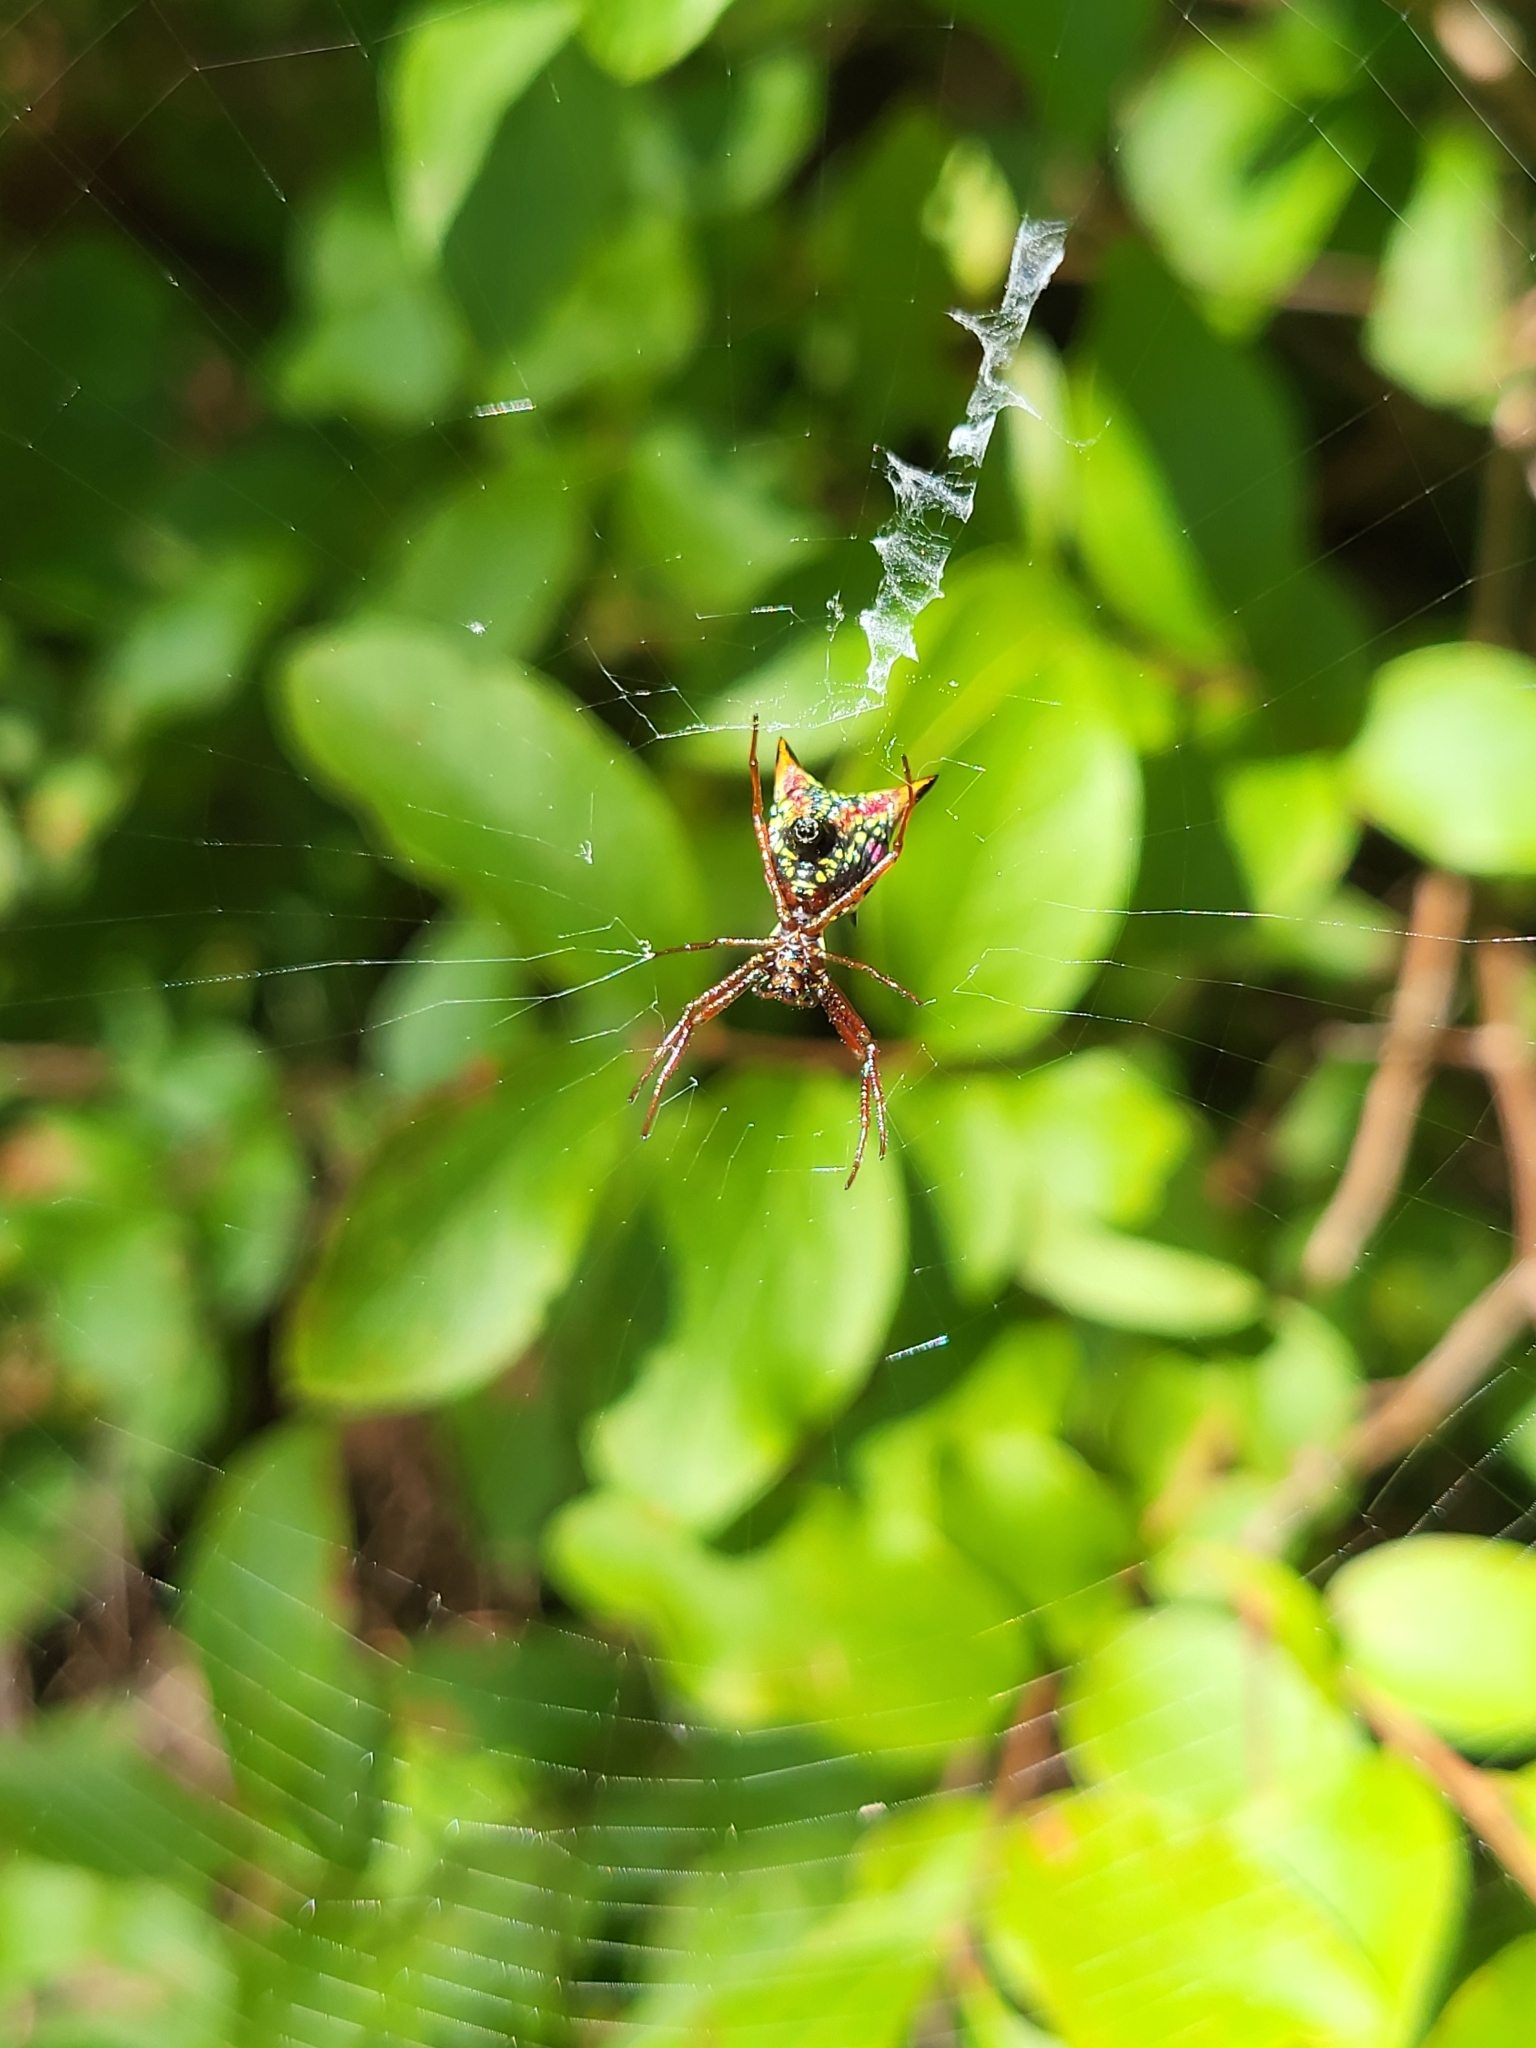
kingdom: Animalia
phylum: Arthropoda
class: Arachnida
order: Araneae
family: Araneidae
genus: Micrathena
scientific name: Micrathena sagittata
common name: Orb weavers
